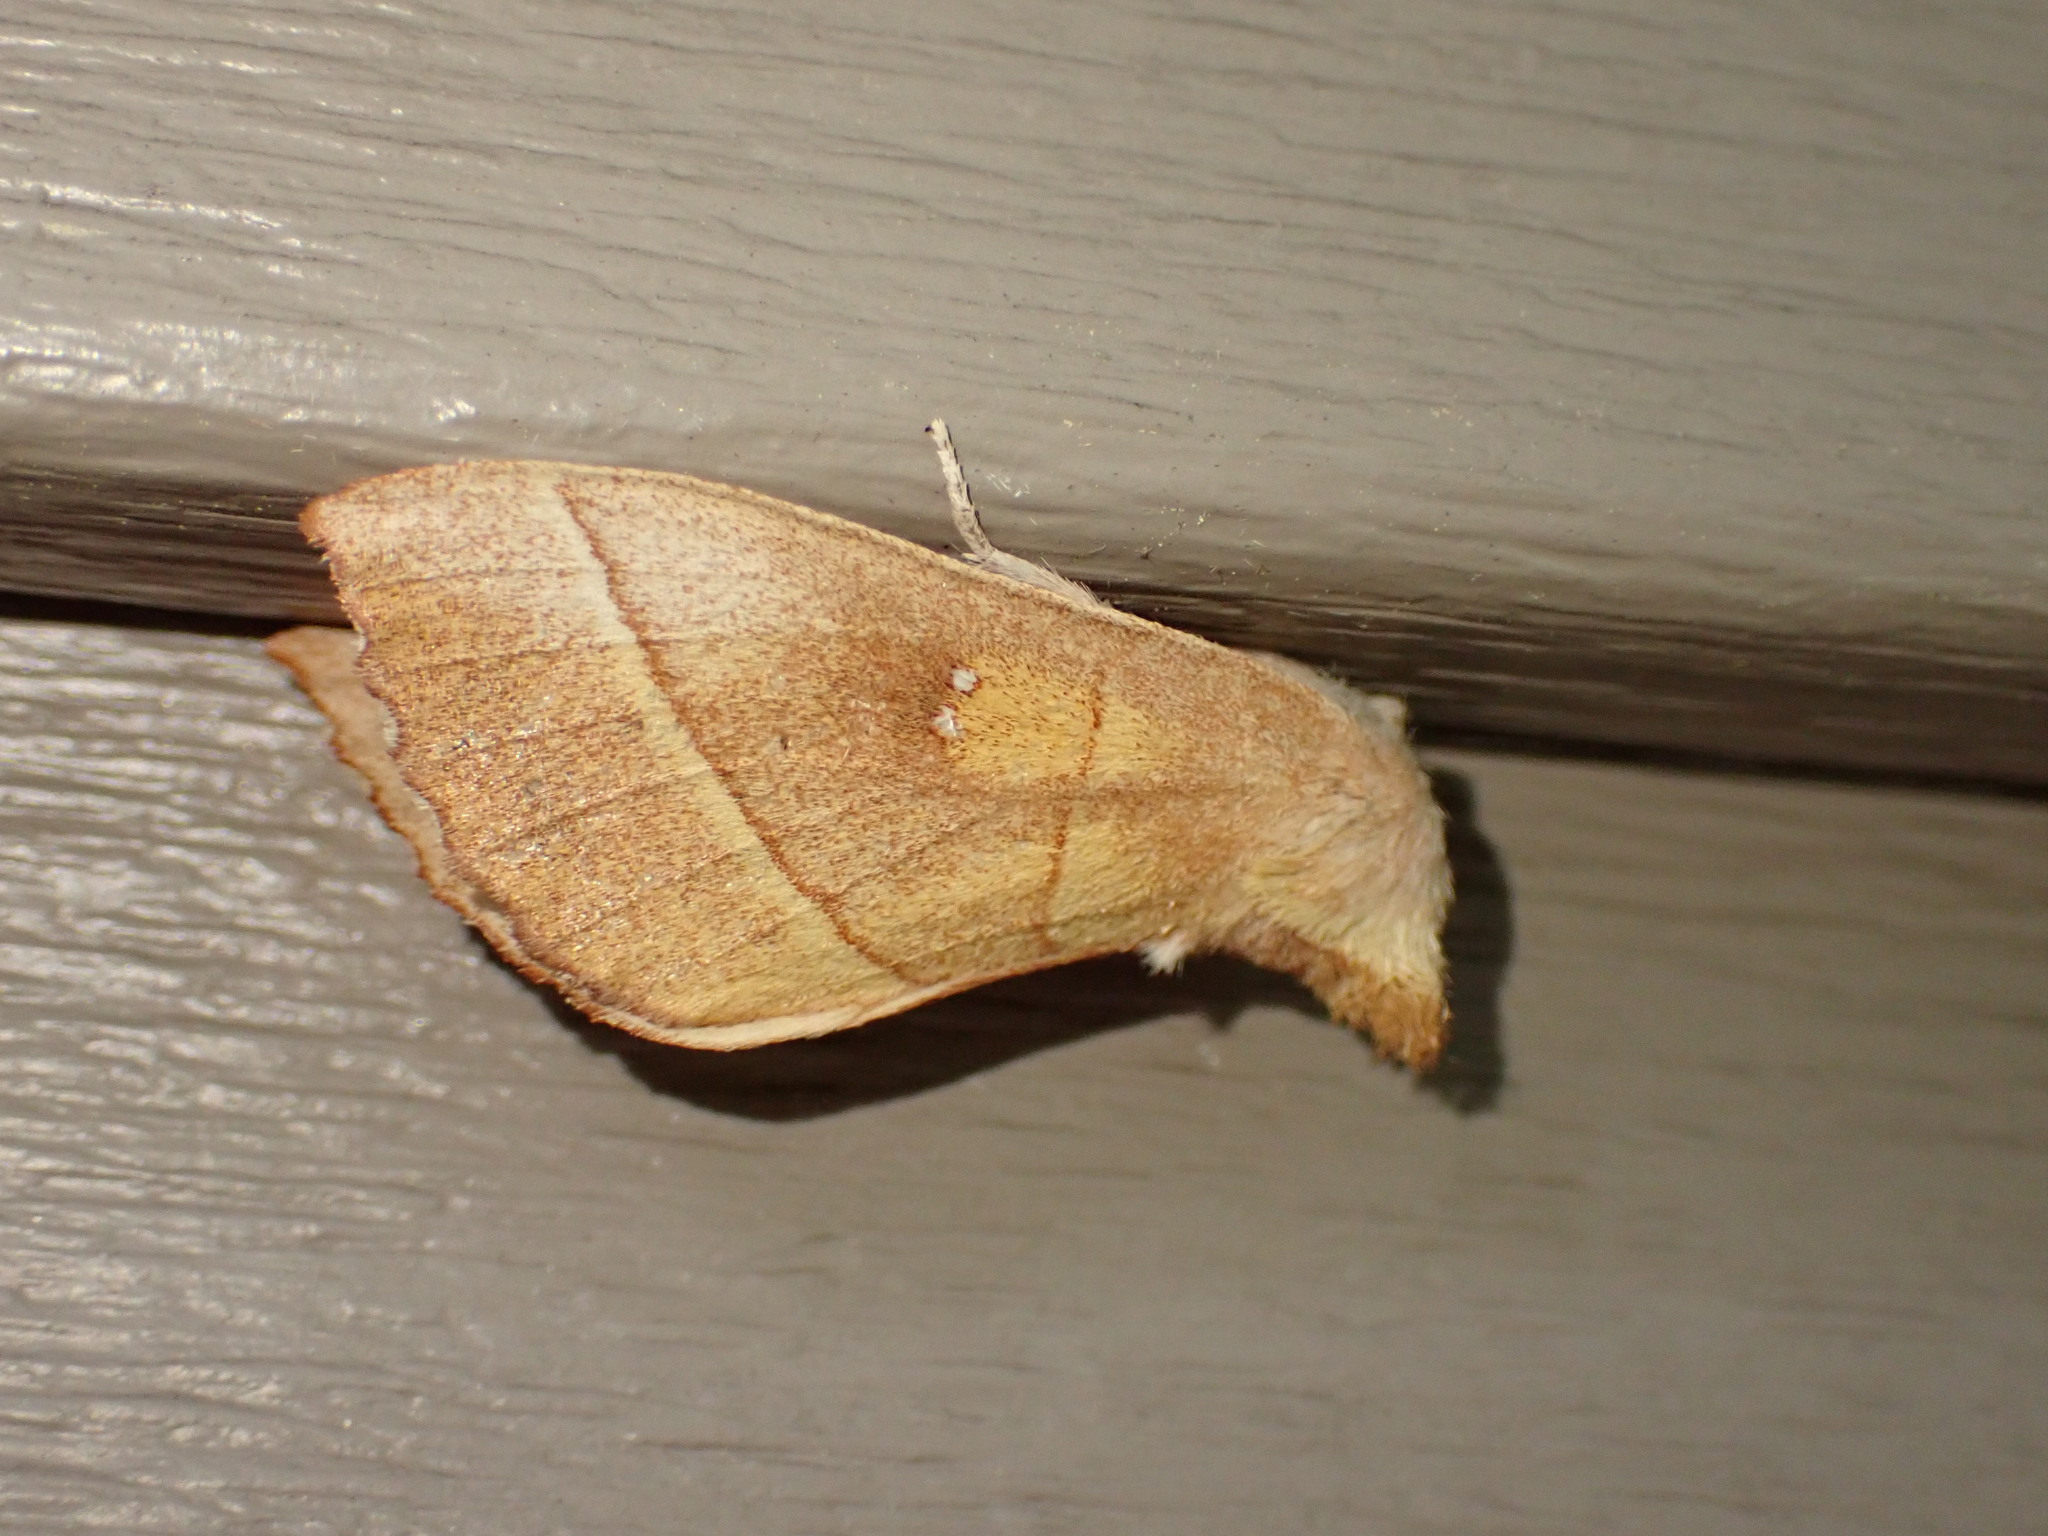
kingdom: Animalia
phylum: Arthropoda
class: Insecta
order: Lepidoptera
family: Notodontidae
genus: Nadata
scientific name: Nadata gibbosa
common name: White-dotted prominent
